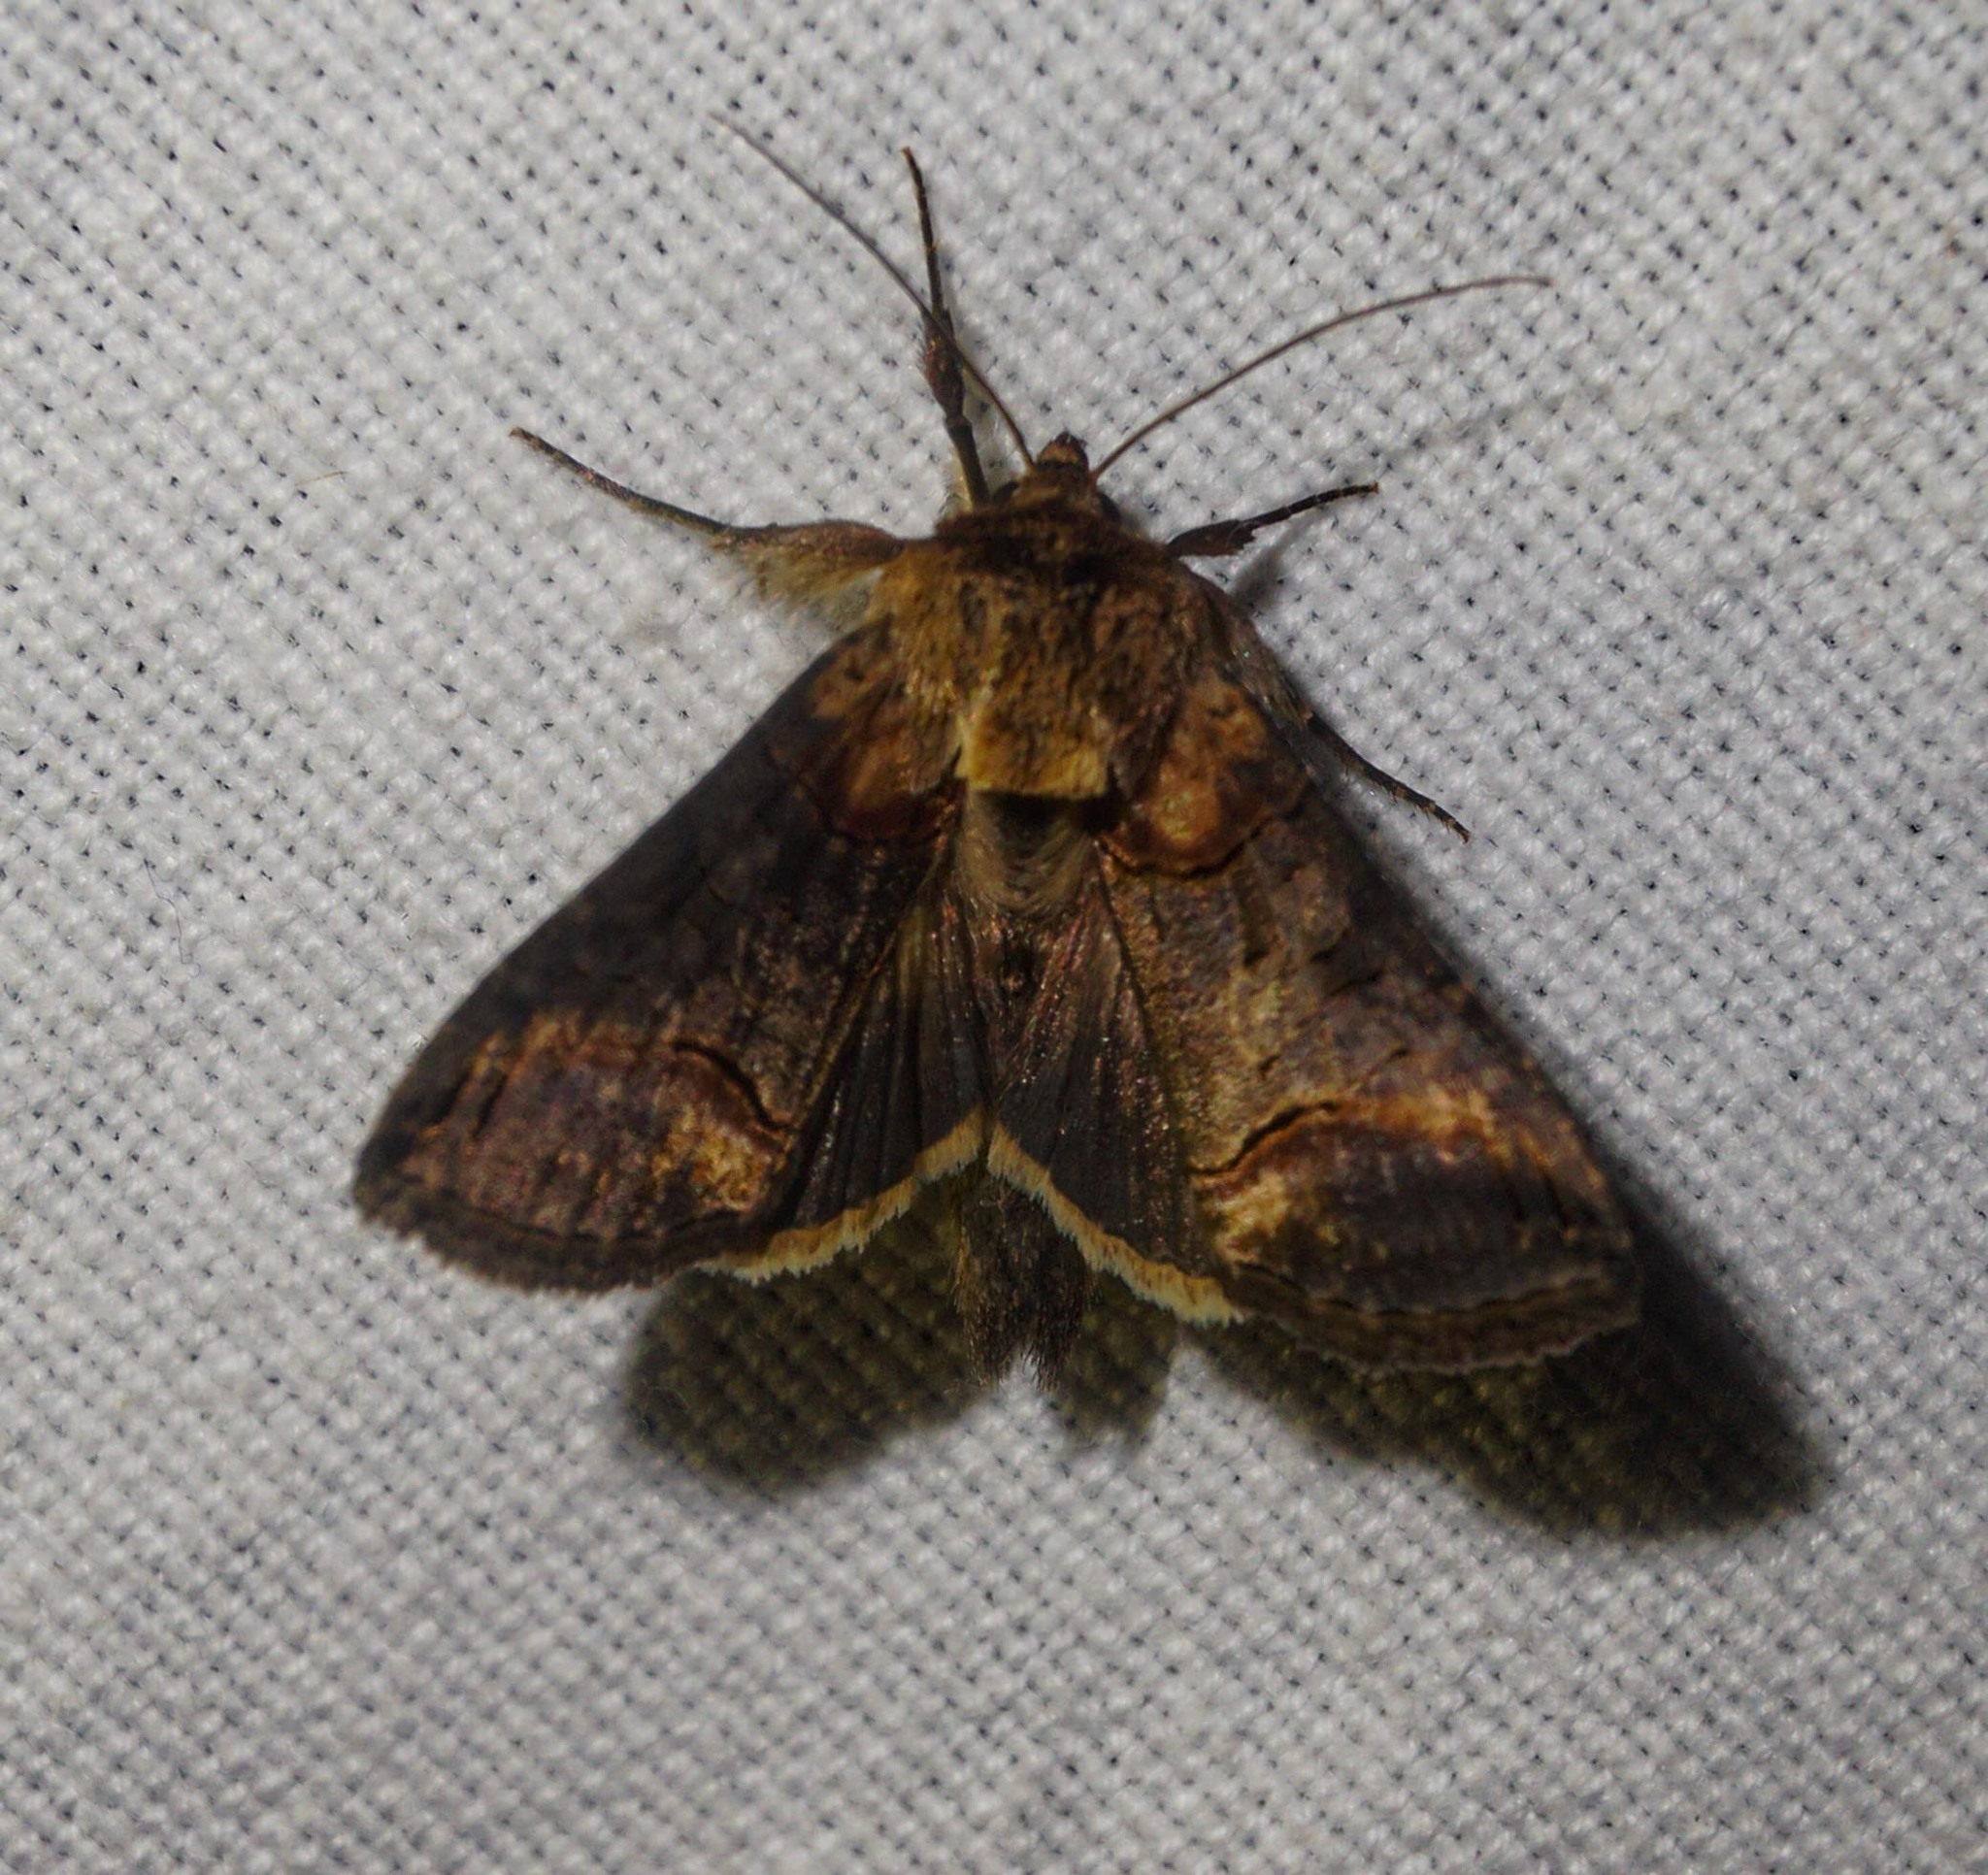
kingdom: Animalia
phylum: Arthropoda
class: Insecta
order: Lepidoptera
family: Noctuidae
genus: Abrostola
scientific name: Abrostola triplasia
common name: Dark spectacle
